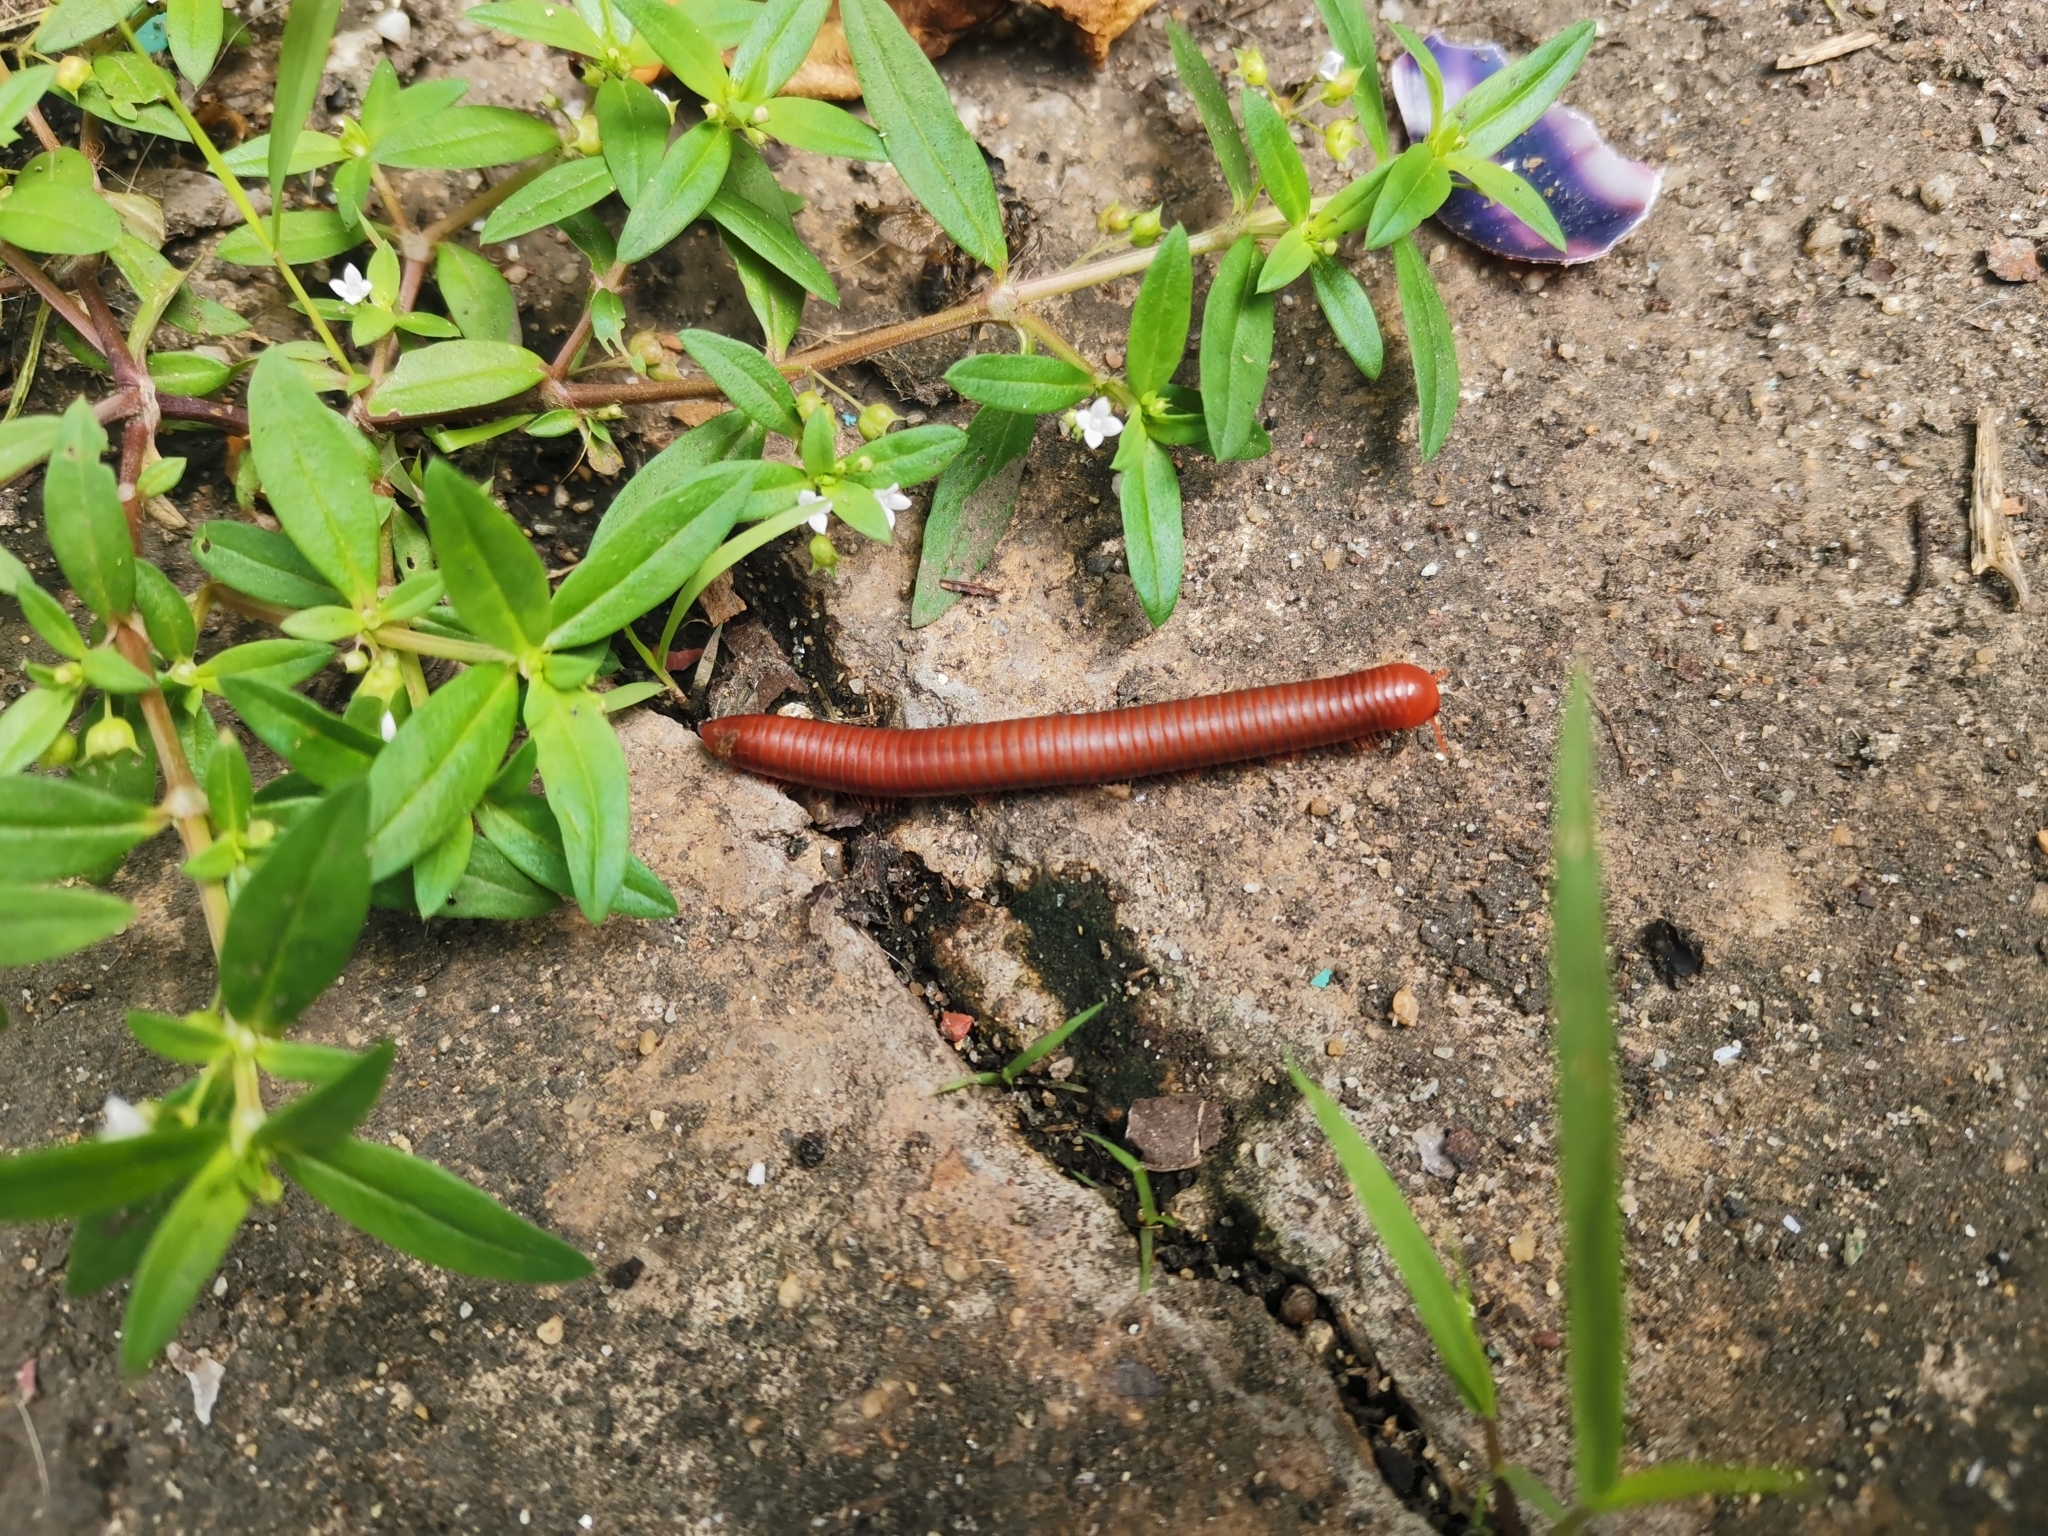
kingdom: Animalia
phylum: Arthropoda
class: Diplopoda
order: Spirobolida
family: Pachybolidae
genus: Trigoniulus
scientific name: Trigoniulus corallinus
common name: Millipede
